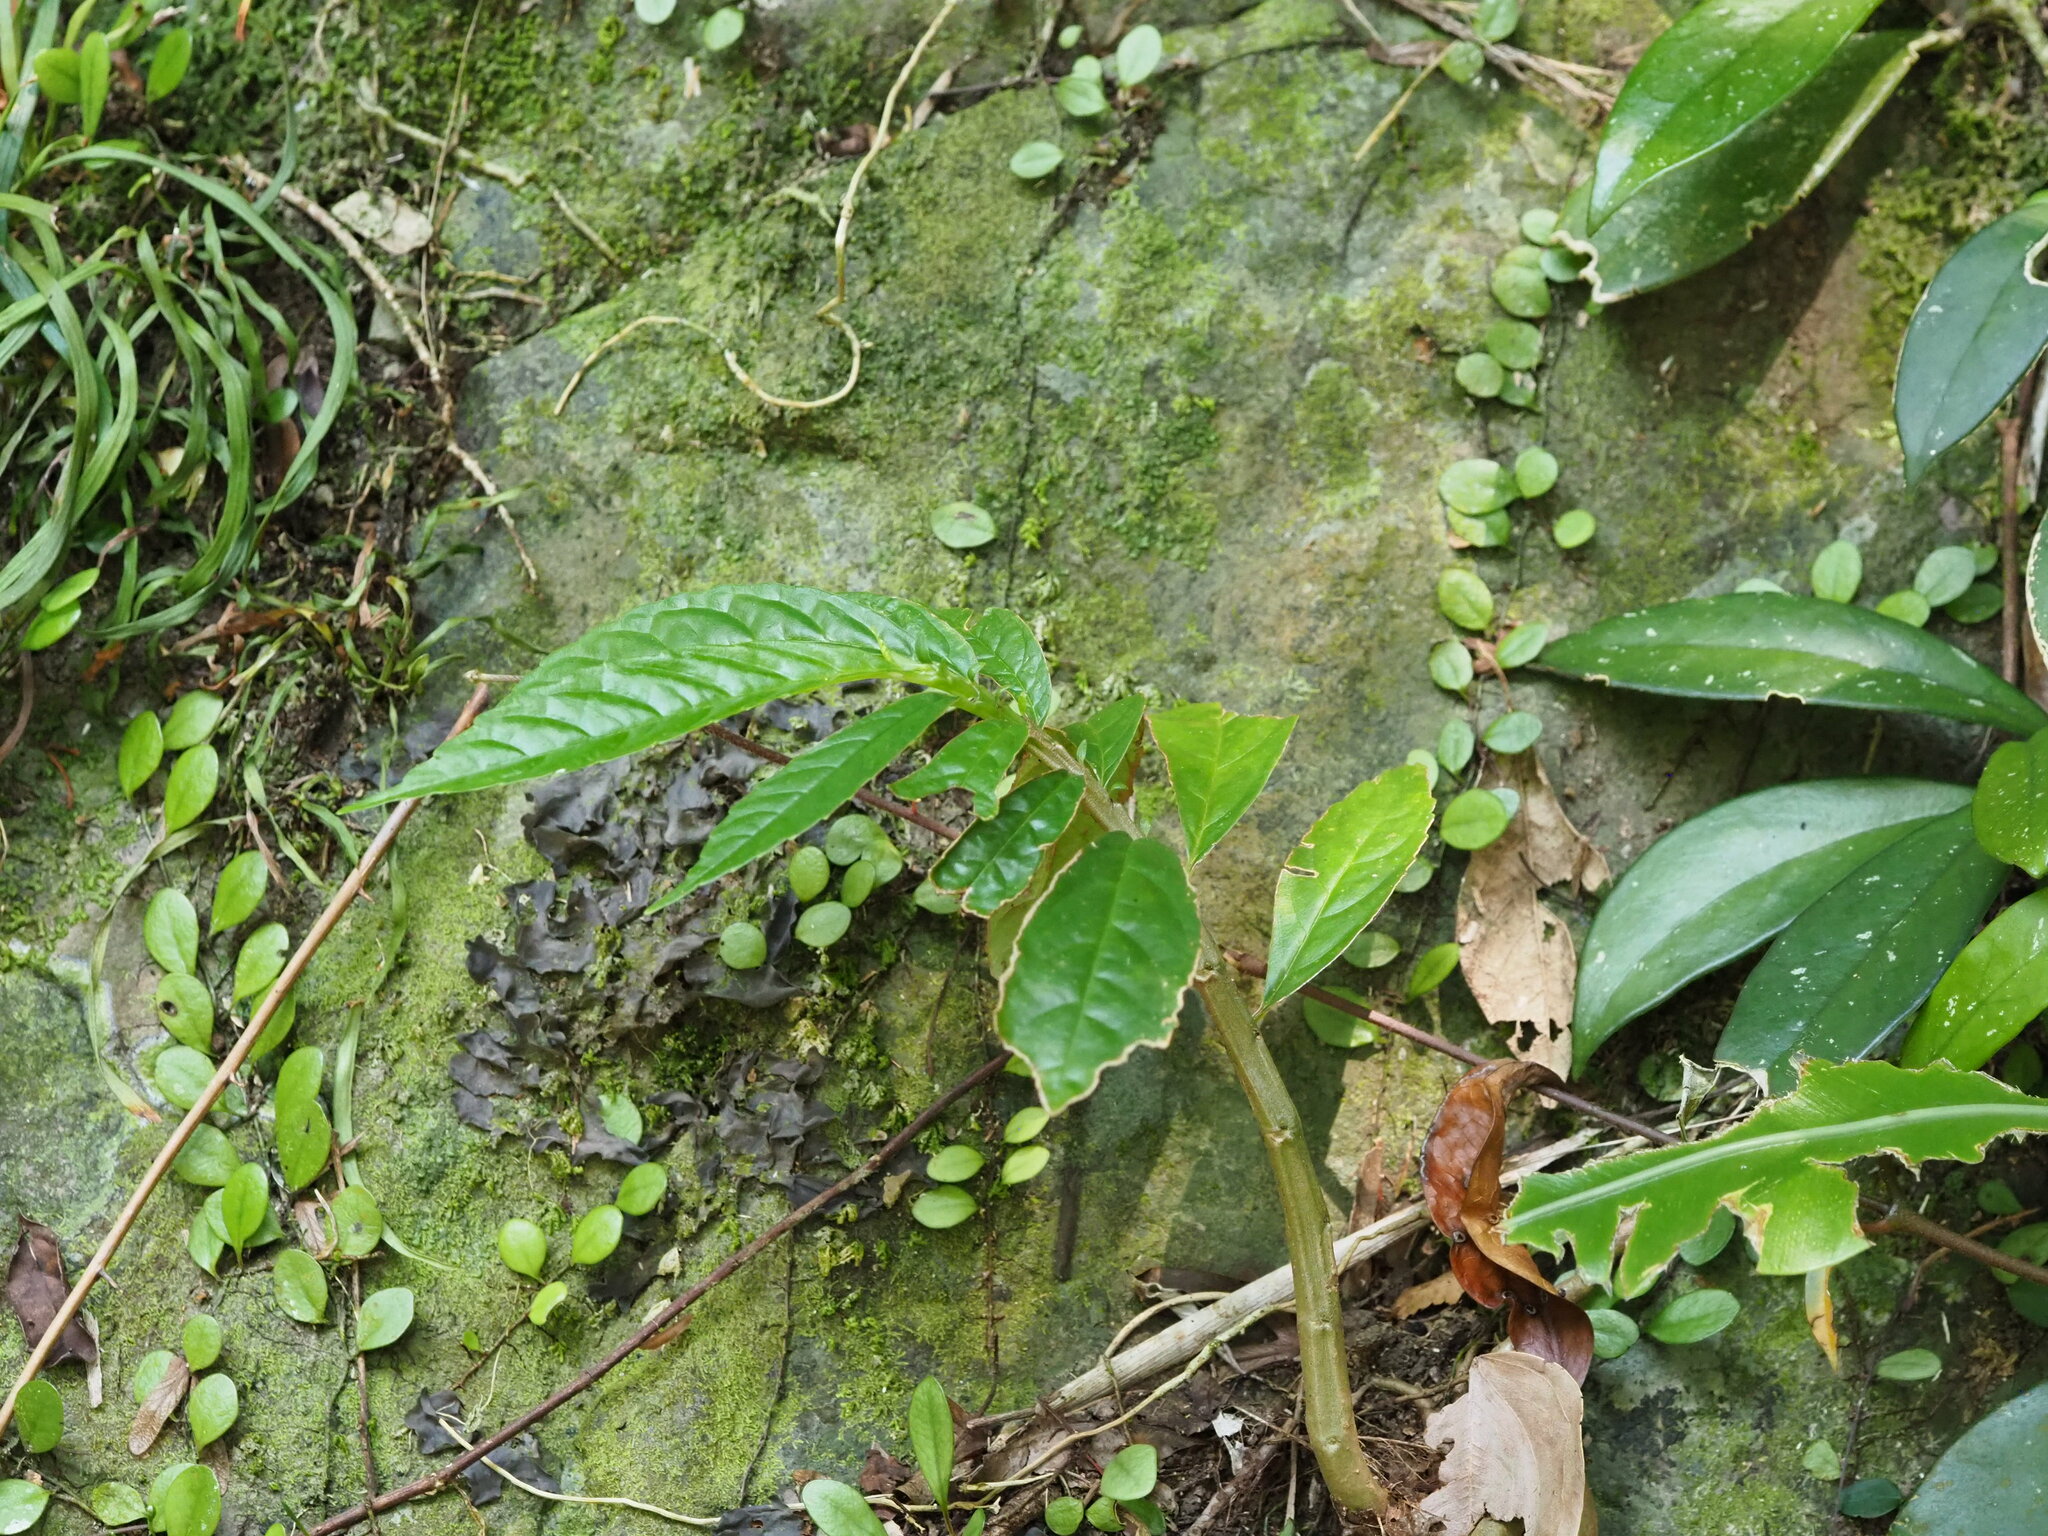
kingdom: Plantae
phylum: Tracheophyta
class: Magnoliopsida
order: Rosales
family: Urticaceae
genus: Procris
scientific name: Procris
